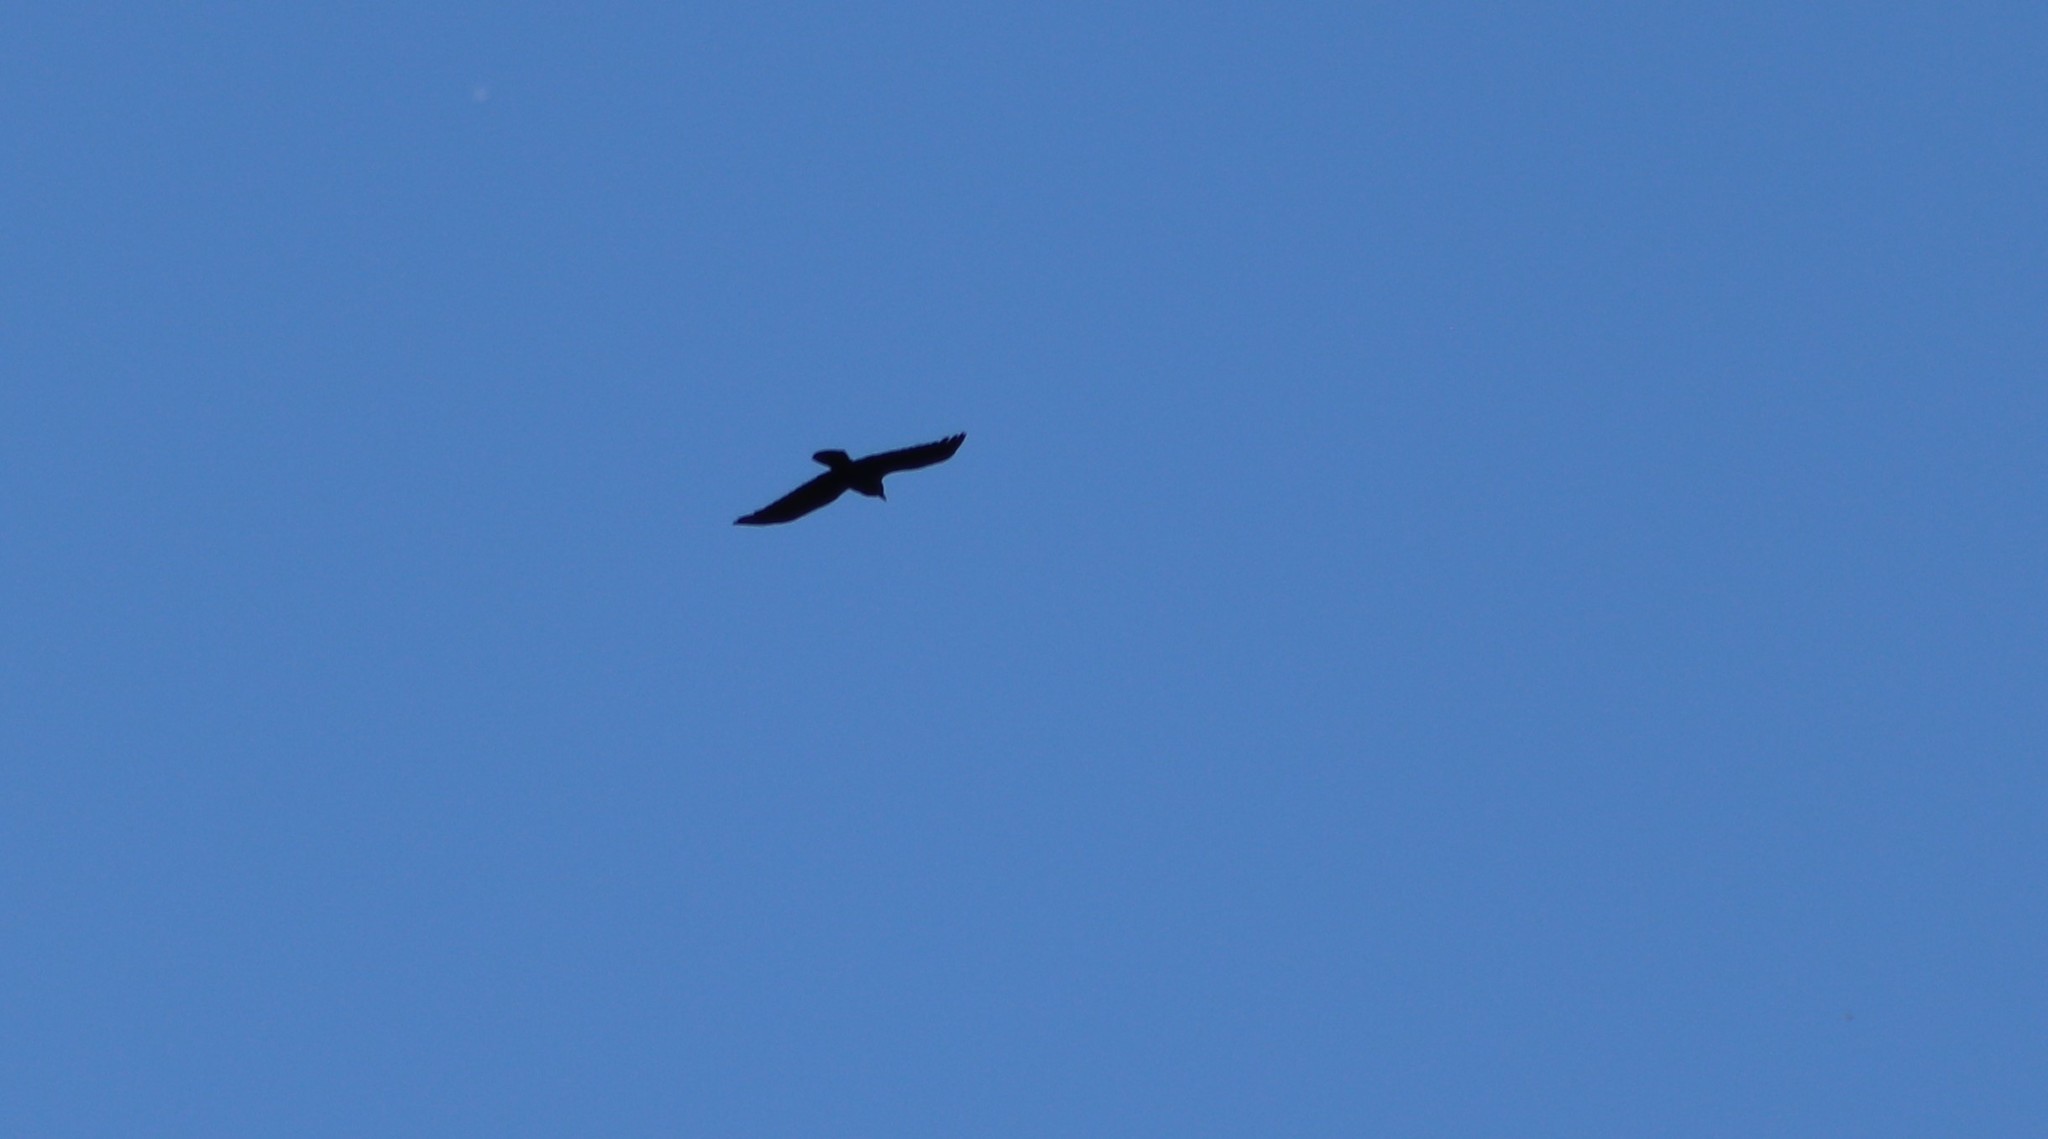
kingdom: Animalia
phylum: Chordata
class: Aves
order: Passeriformes
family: Corvidae
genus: Corvus
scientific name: Corvus corax
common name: Common raven
